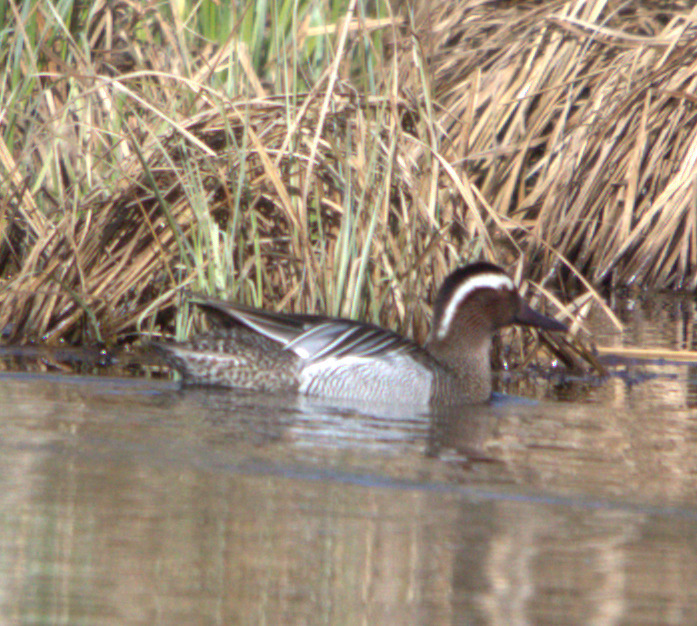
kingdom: Animalia
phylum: Chordata
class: Aves
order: Anseriformes
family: Anatidae
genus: Spatula
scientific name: Spatula querquedula
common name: Garganey
